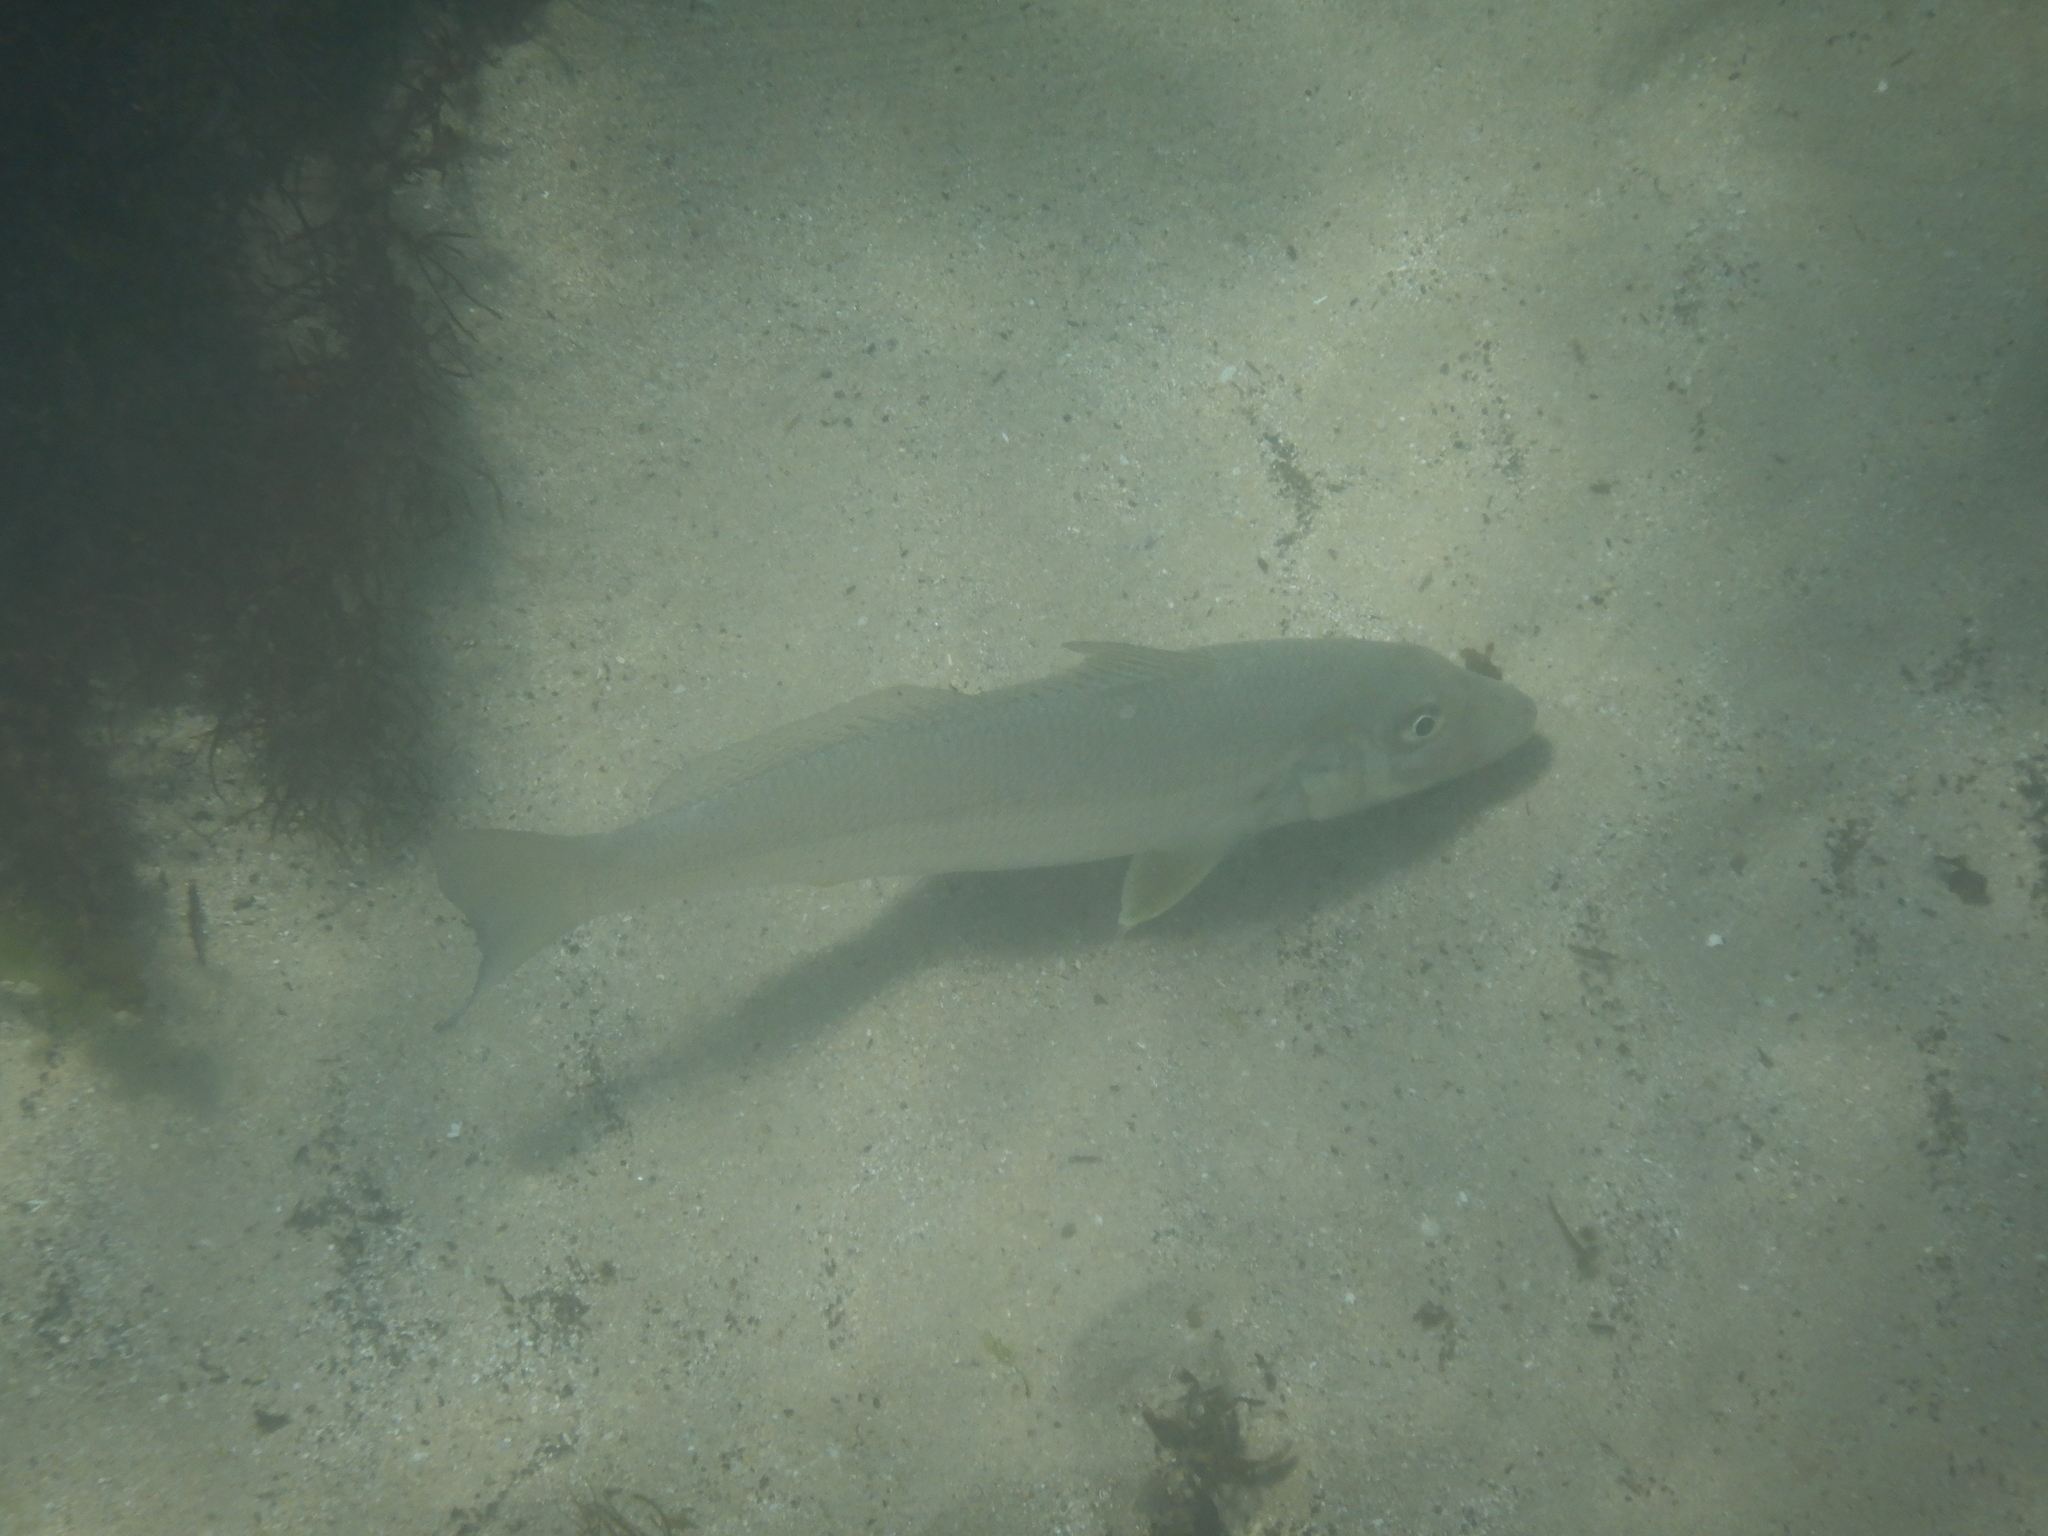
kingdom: Animalia
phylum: Chordata
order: Perciformes
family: Sillaginidae
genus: Sillago
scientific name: Sillago ciliata
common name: Sand sillago
